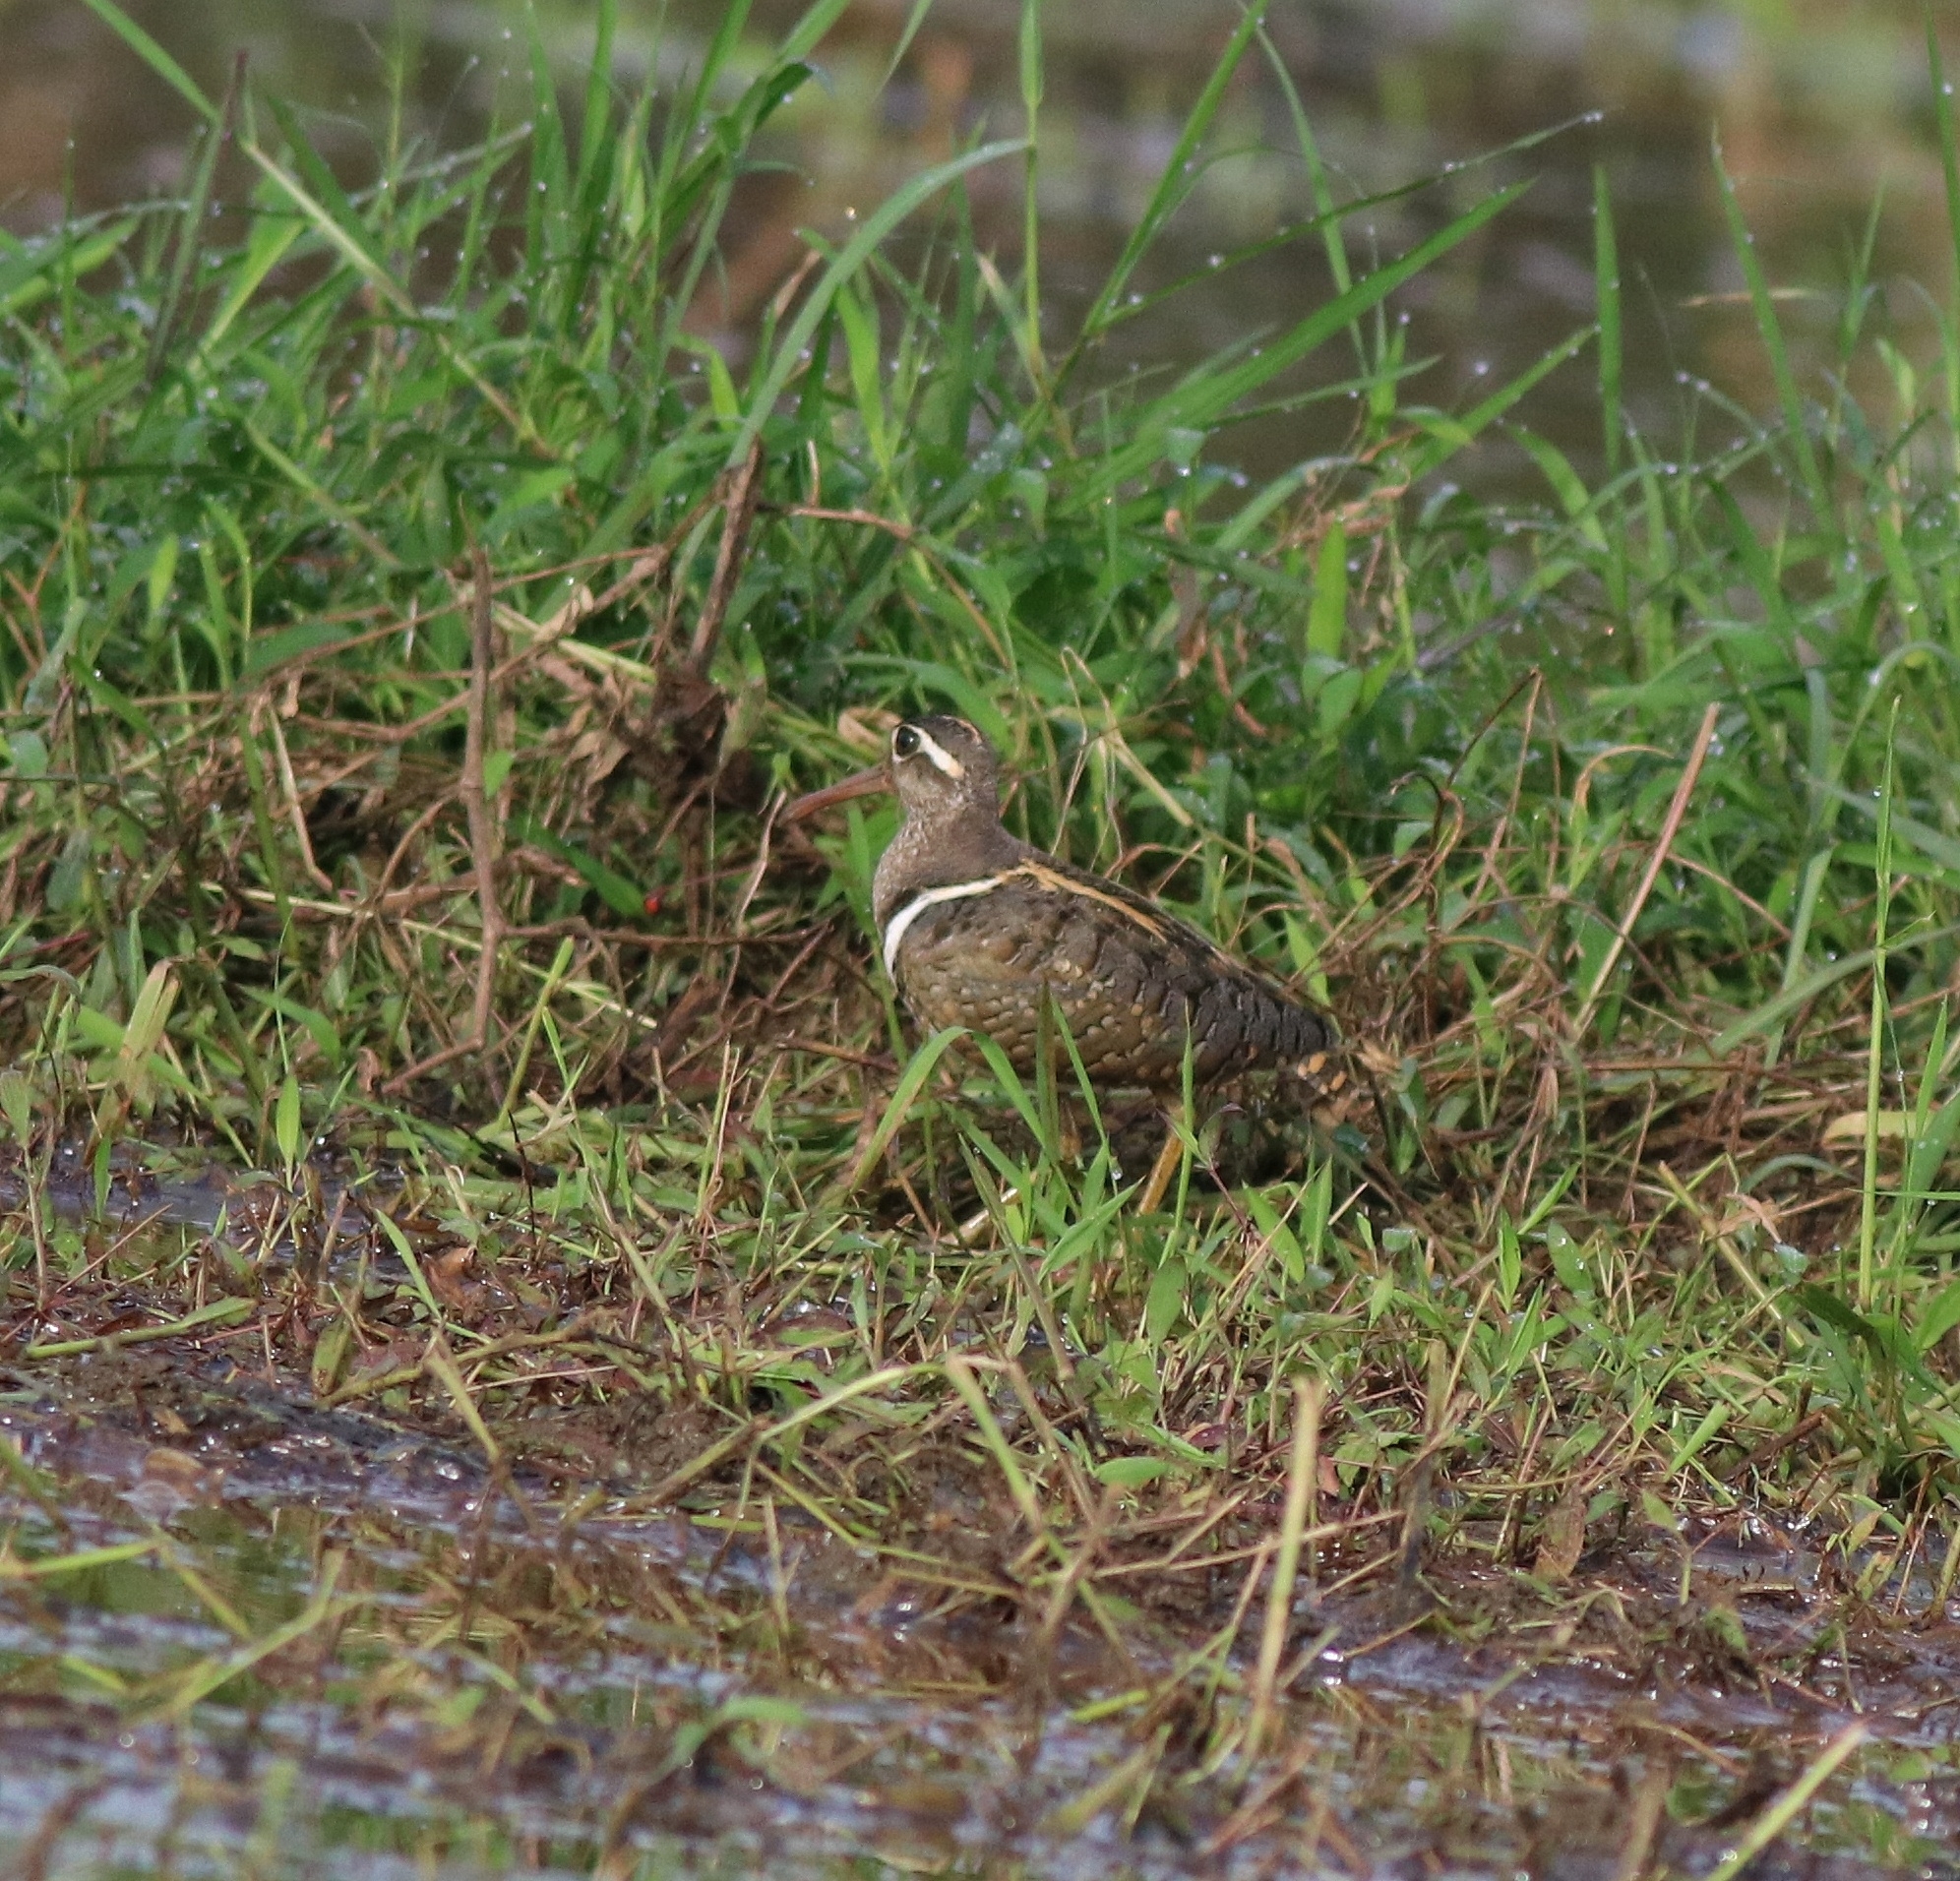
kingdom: Animalia
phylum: Chordata
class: Aves
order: Charadriiformes
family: Rostratulidae
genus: Rostratula
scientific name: Rostratula benghalensis
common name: Greater painted-snipe
